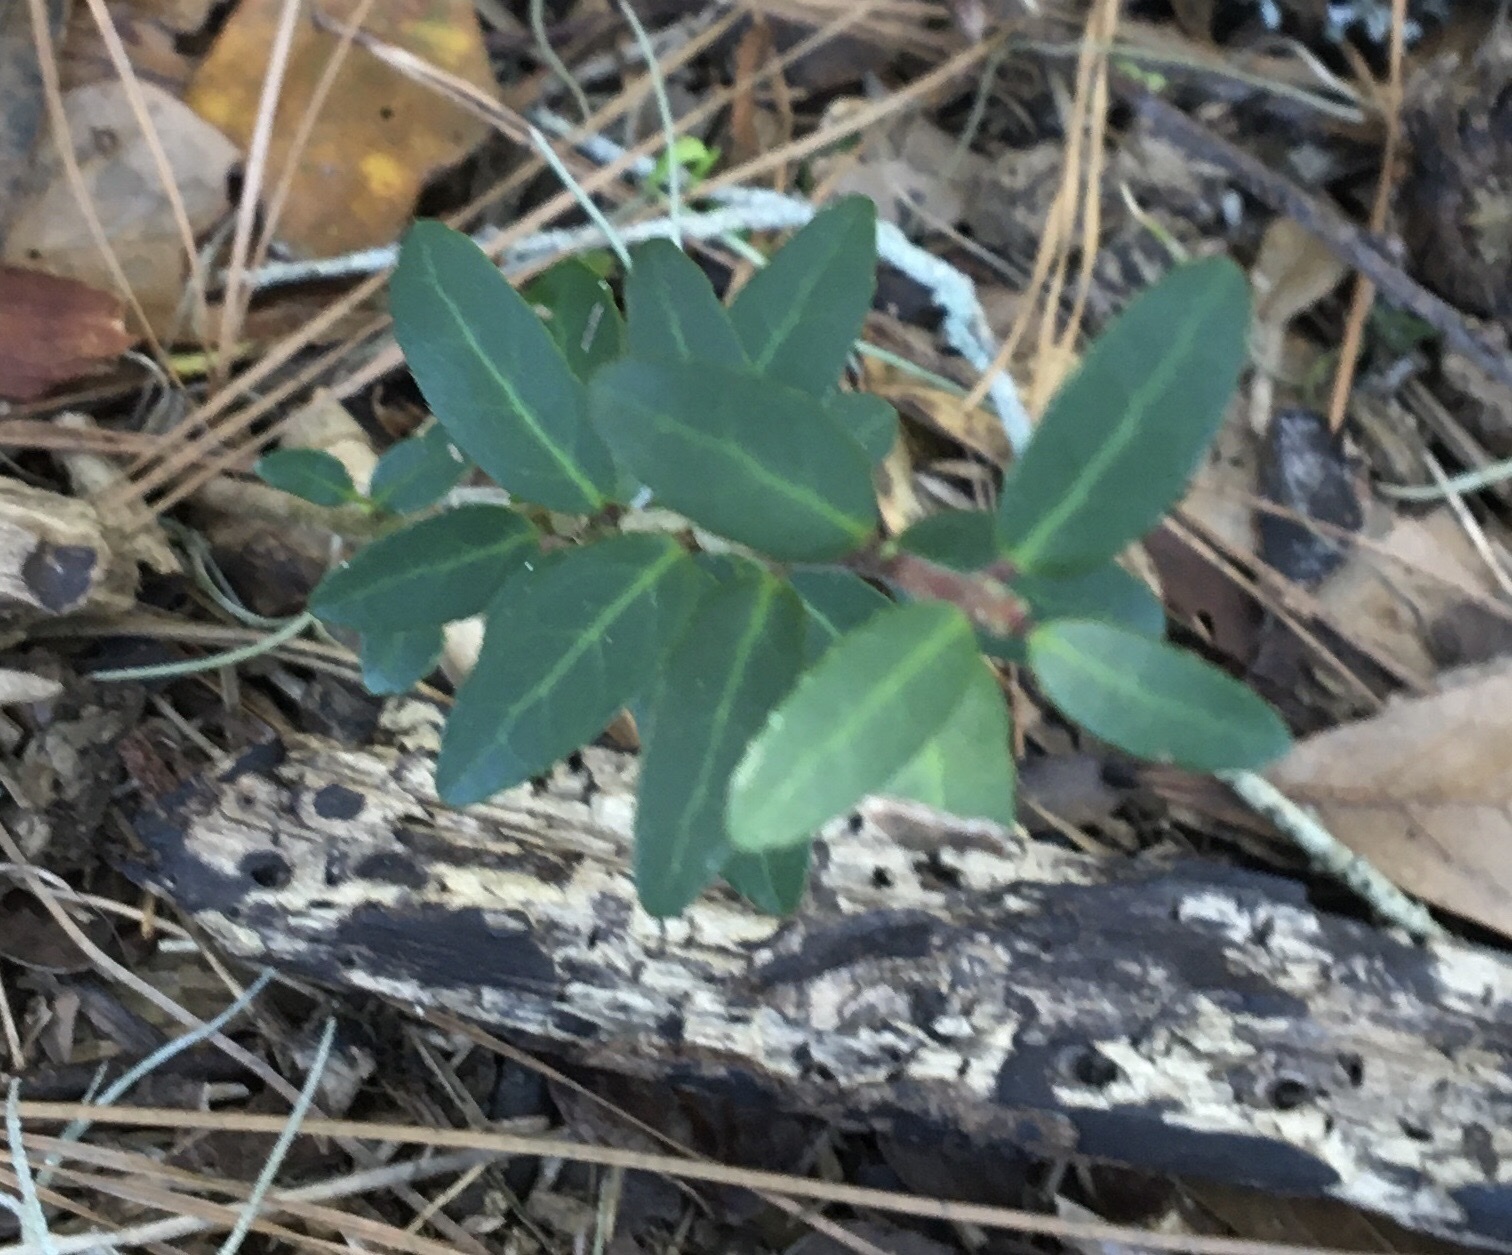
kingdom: Plantae
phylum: Tracheophyta
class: Magnoliopsida
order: Aquifoliales
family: Aquifoliaceae
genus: Ilex
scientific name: Ilex vomitoria
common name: Yaupon holly
